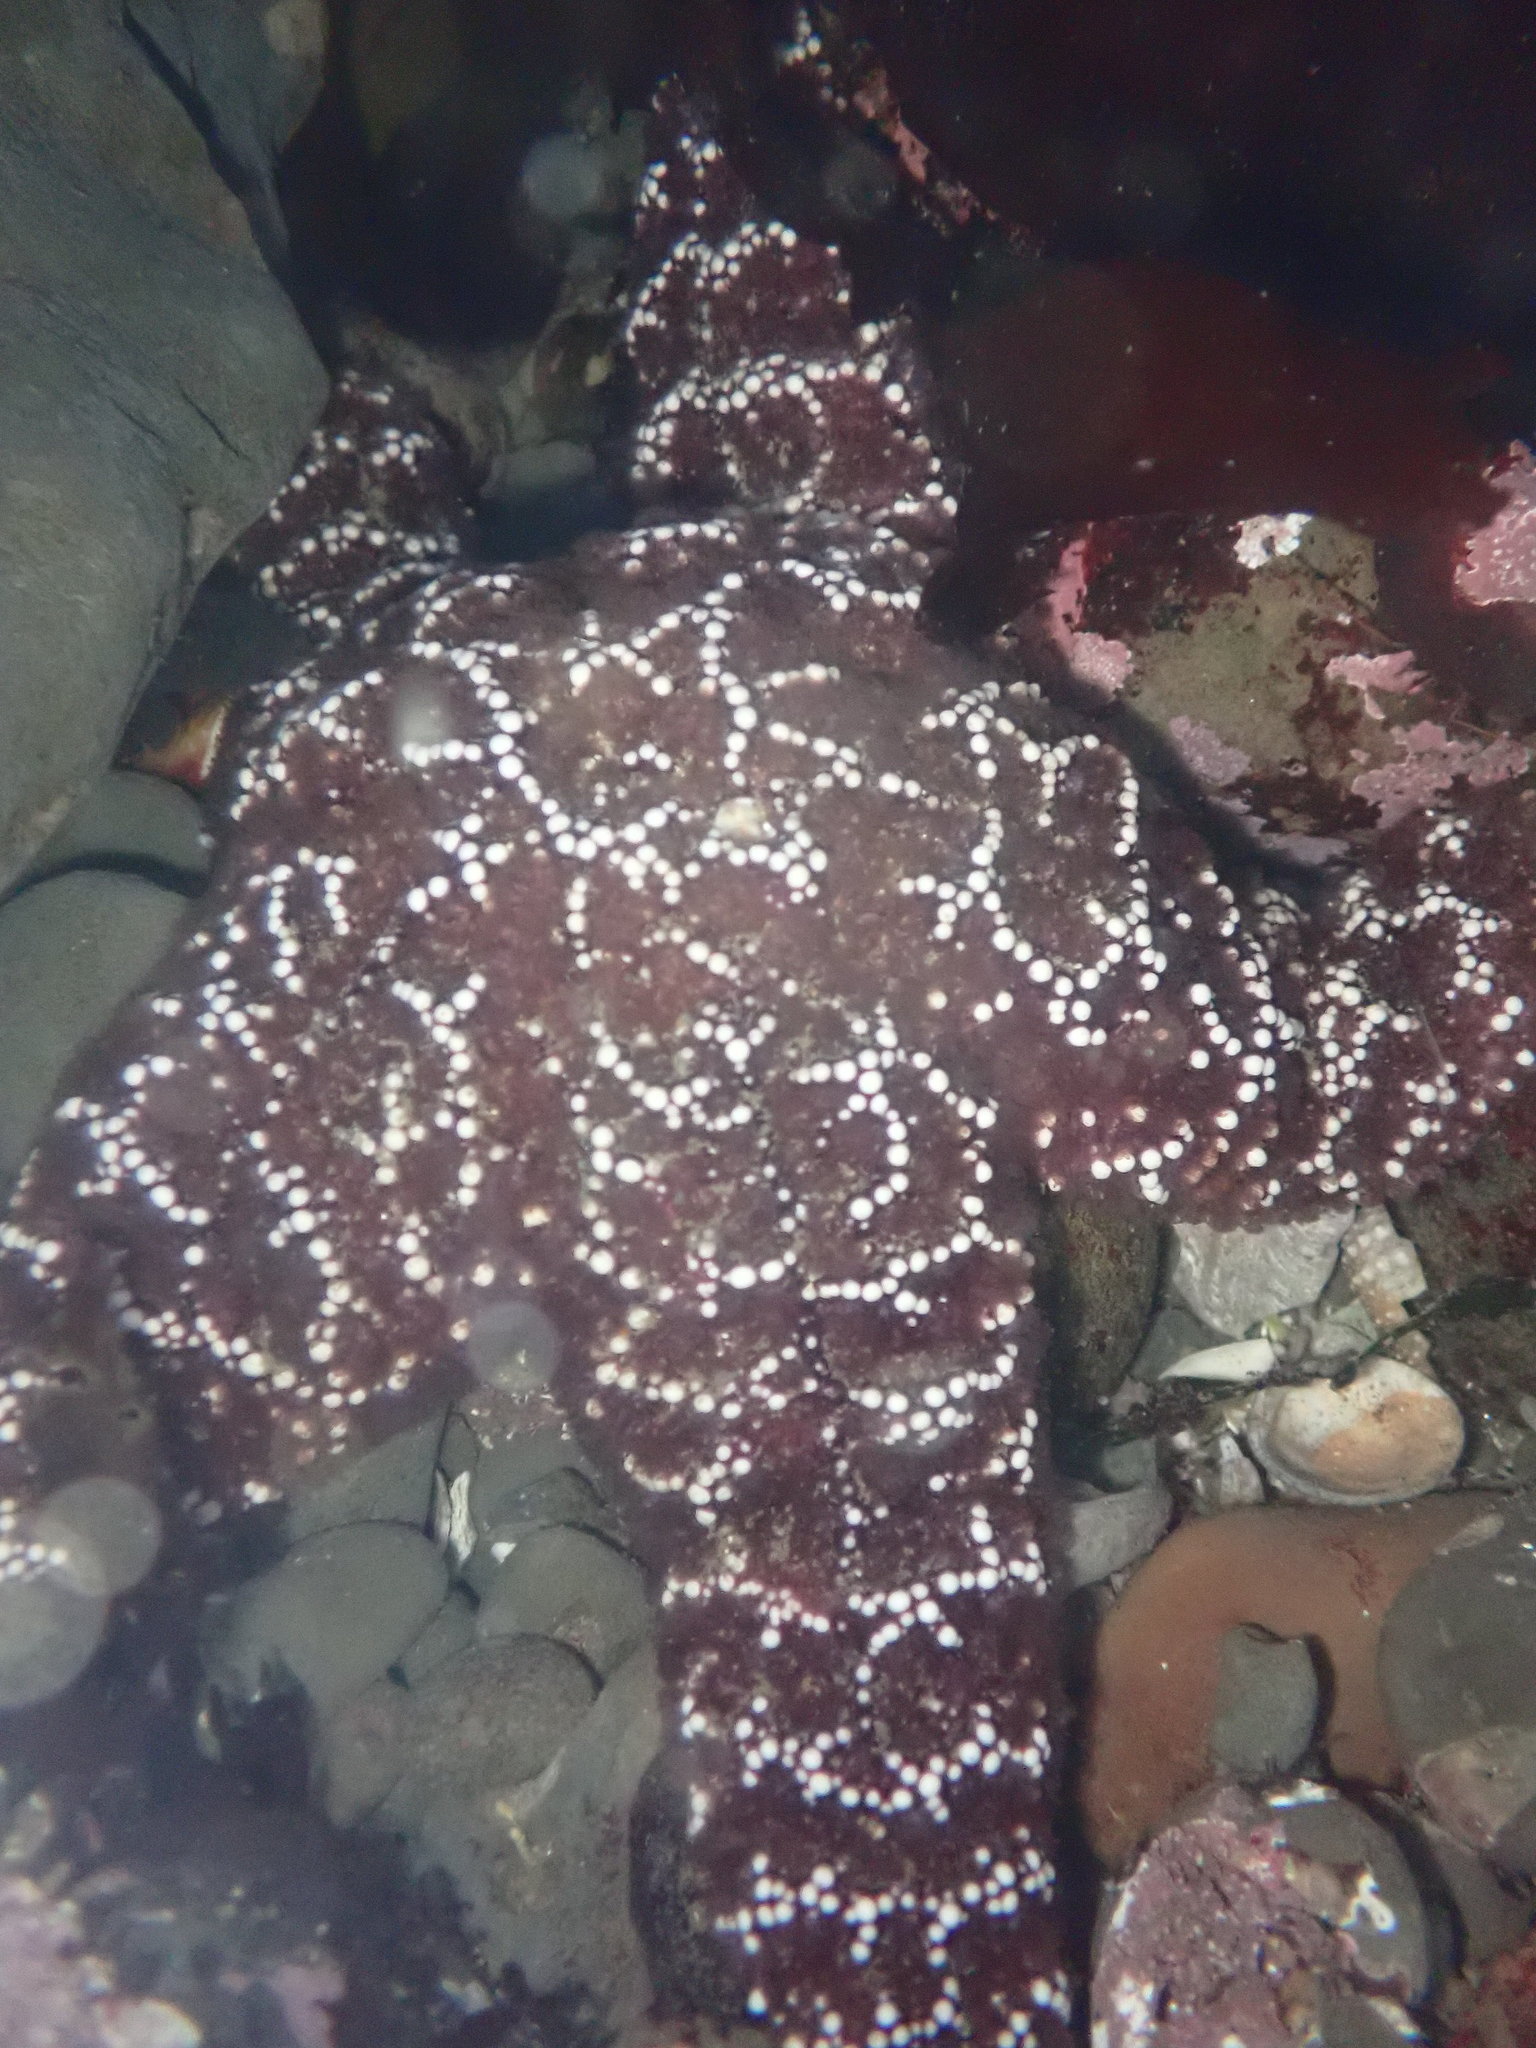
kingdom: Animalia
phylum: Echinodermata
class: Asteroidea
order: Forcipulatida
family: Asteriidae
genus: Pisaster
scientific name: Pisaster ochraceus
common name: Ochre stars
